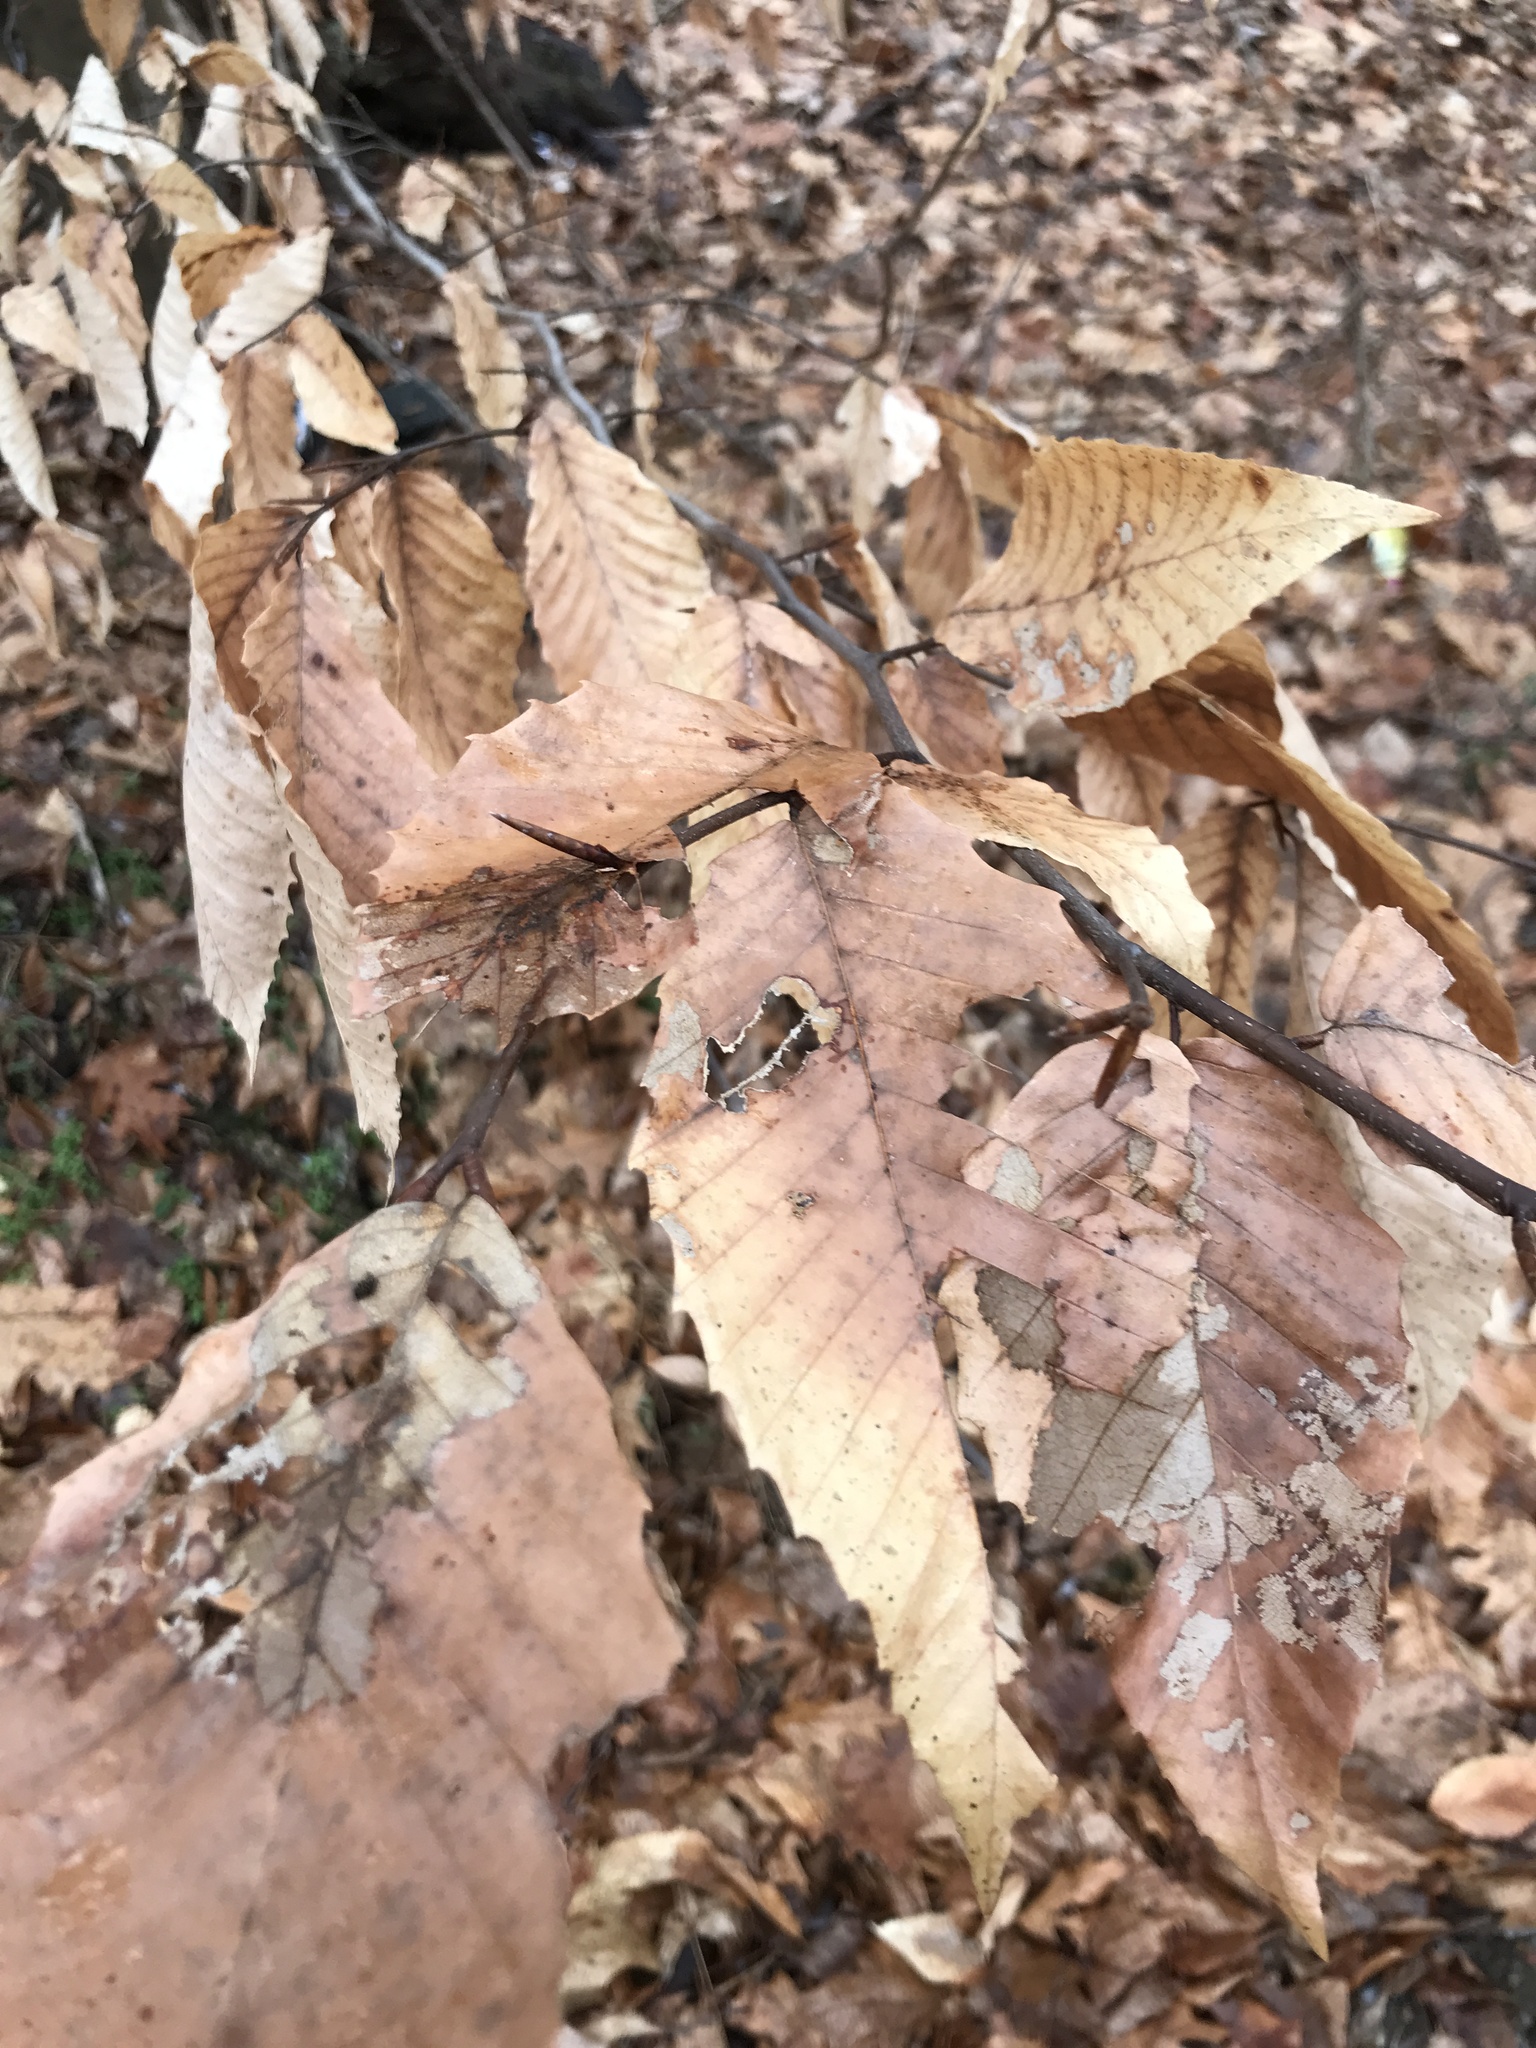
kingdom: Plantae
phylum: Tracheophyta
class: Magnoliopsida
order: Fagales
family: Fagaceae
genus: Fagus
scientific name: Fagus grandifolia
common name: American beech
